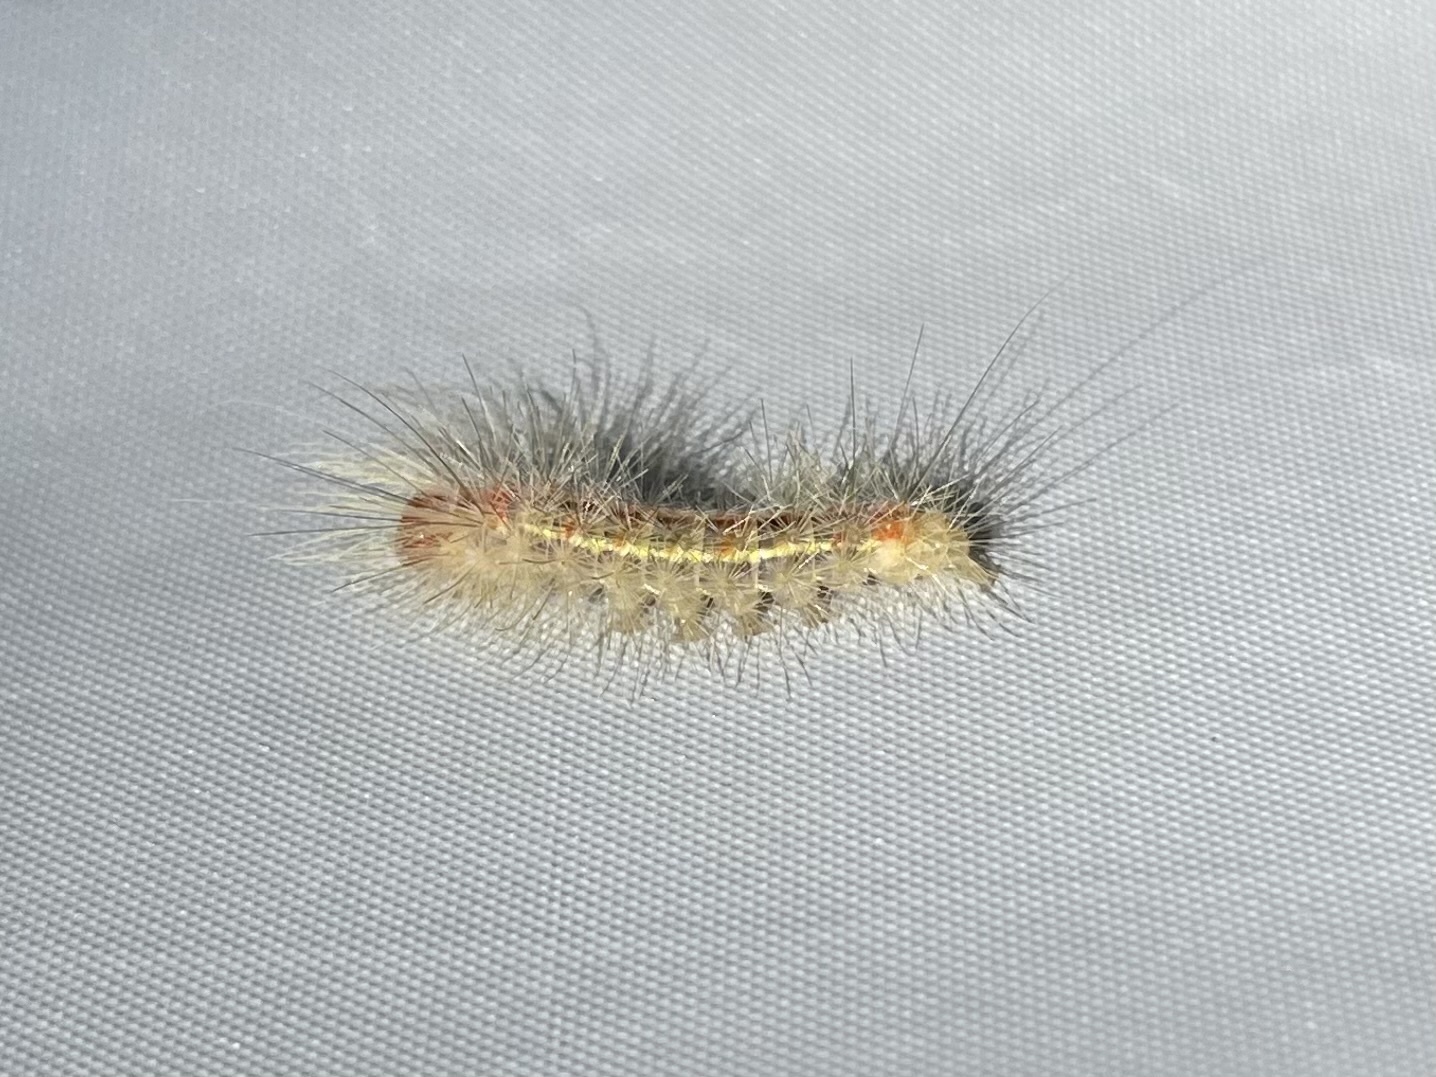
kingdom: Animalia
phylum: Arthropoda
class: Insecta
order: Lepidoptera
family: Erebidae
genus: Lymire
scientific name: Lymire edwardsii
